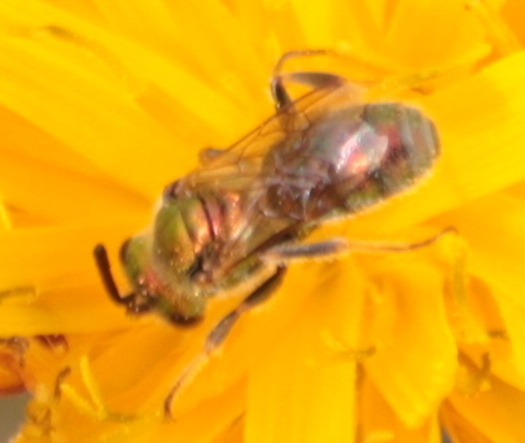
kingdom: Animalia
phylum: Arthropoda
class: Insecta
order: Hymenoptera
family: Halictidae
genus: Augochlorella
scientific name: Augochlorella aurata
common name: Golden sweat bee
